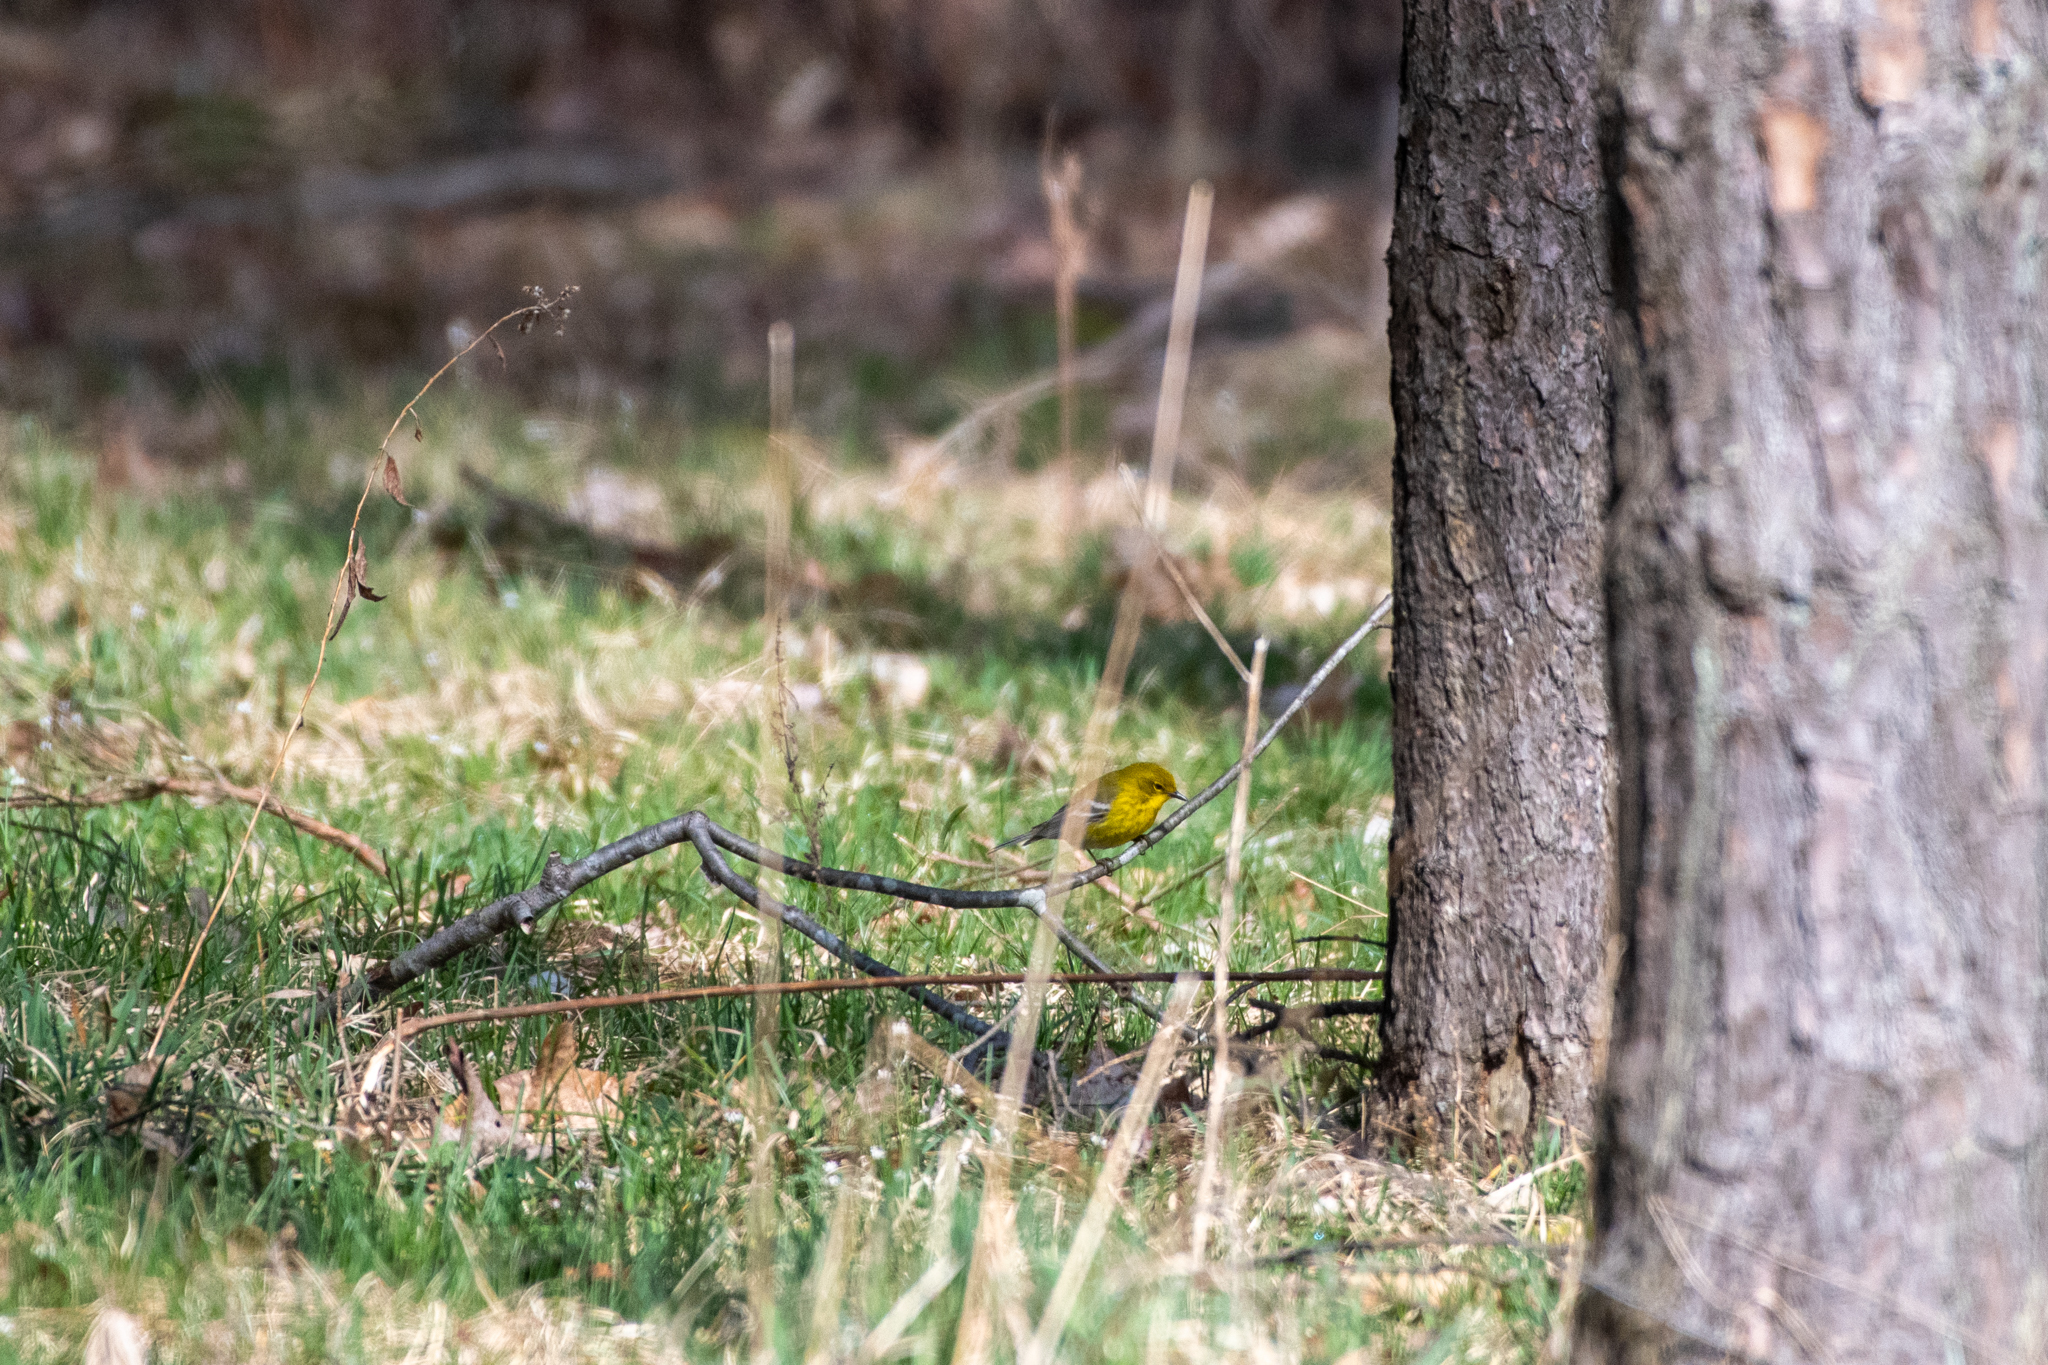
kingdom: Animalia
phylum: Chordata
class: Aves
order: Passeriformes
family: Parulidae
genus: Setophaga
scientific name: Setophaga pinus
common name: Pine warbler
